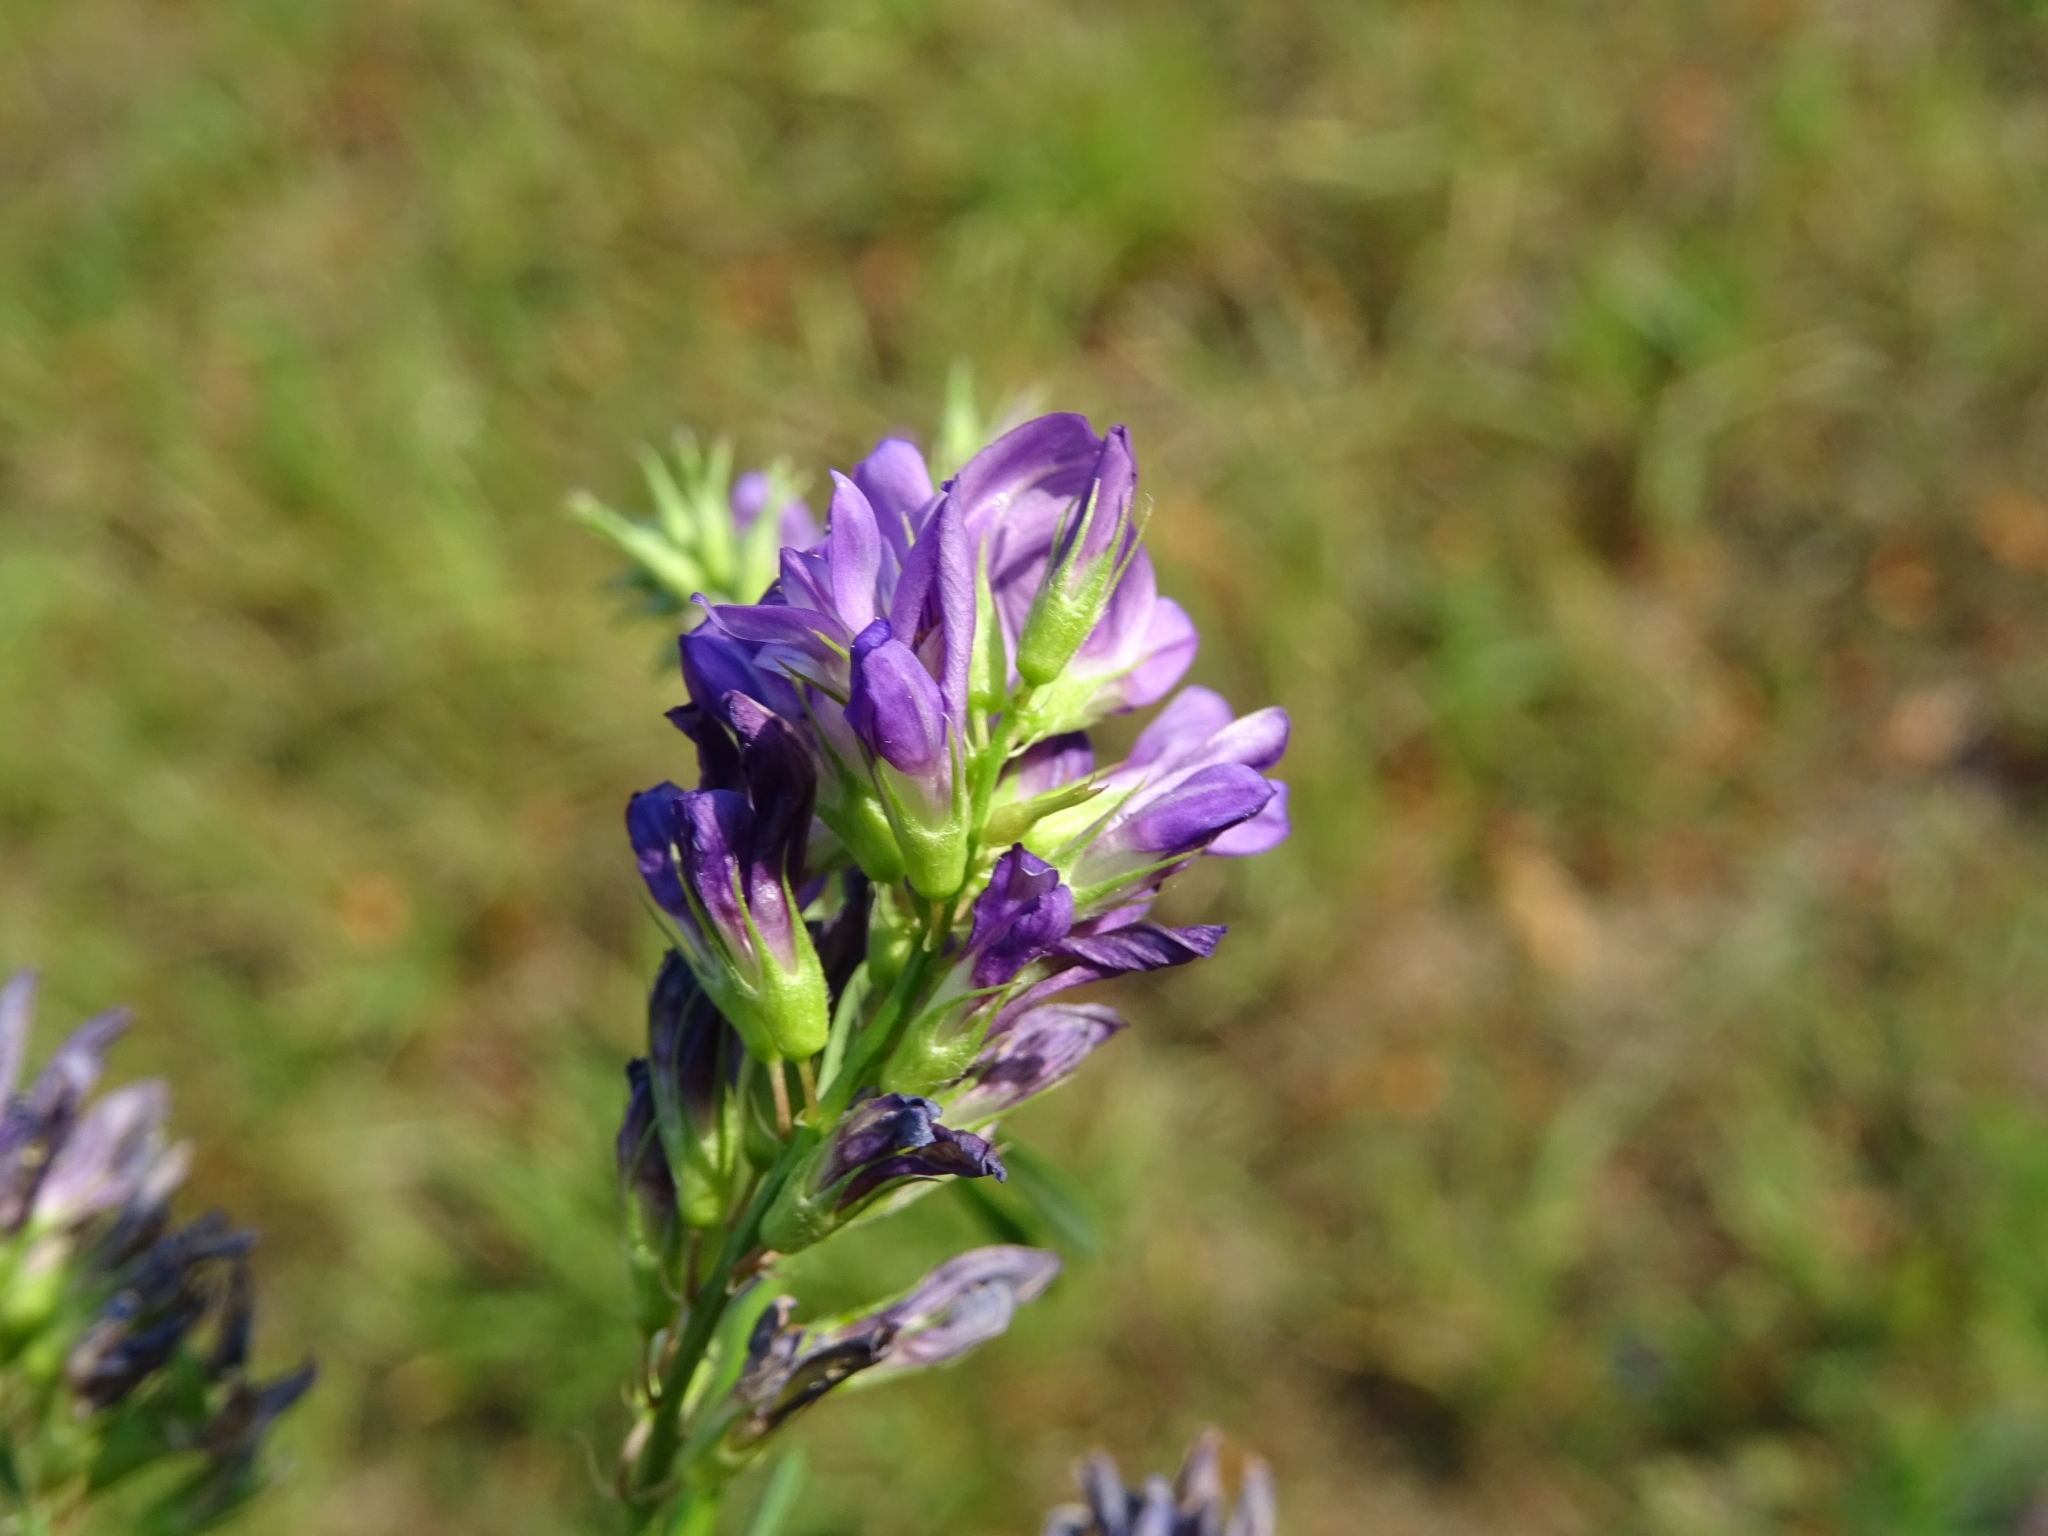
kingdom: Plantae
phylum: Tracheophyta
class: Magnoliopsida
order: Fabales
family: Fabaceae
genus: Medicago
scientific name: Medicago varia
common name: Sand lucerne
